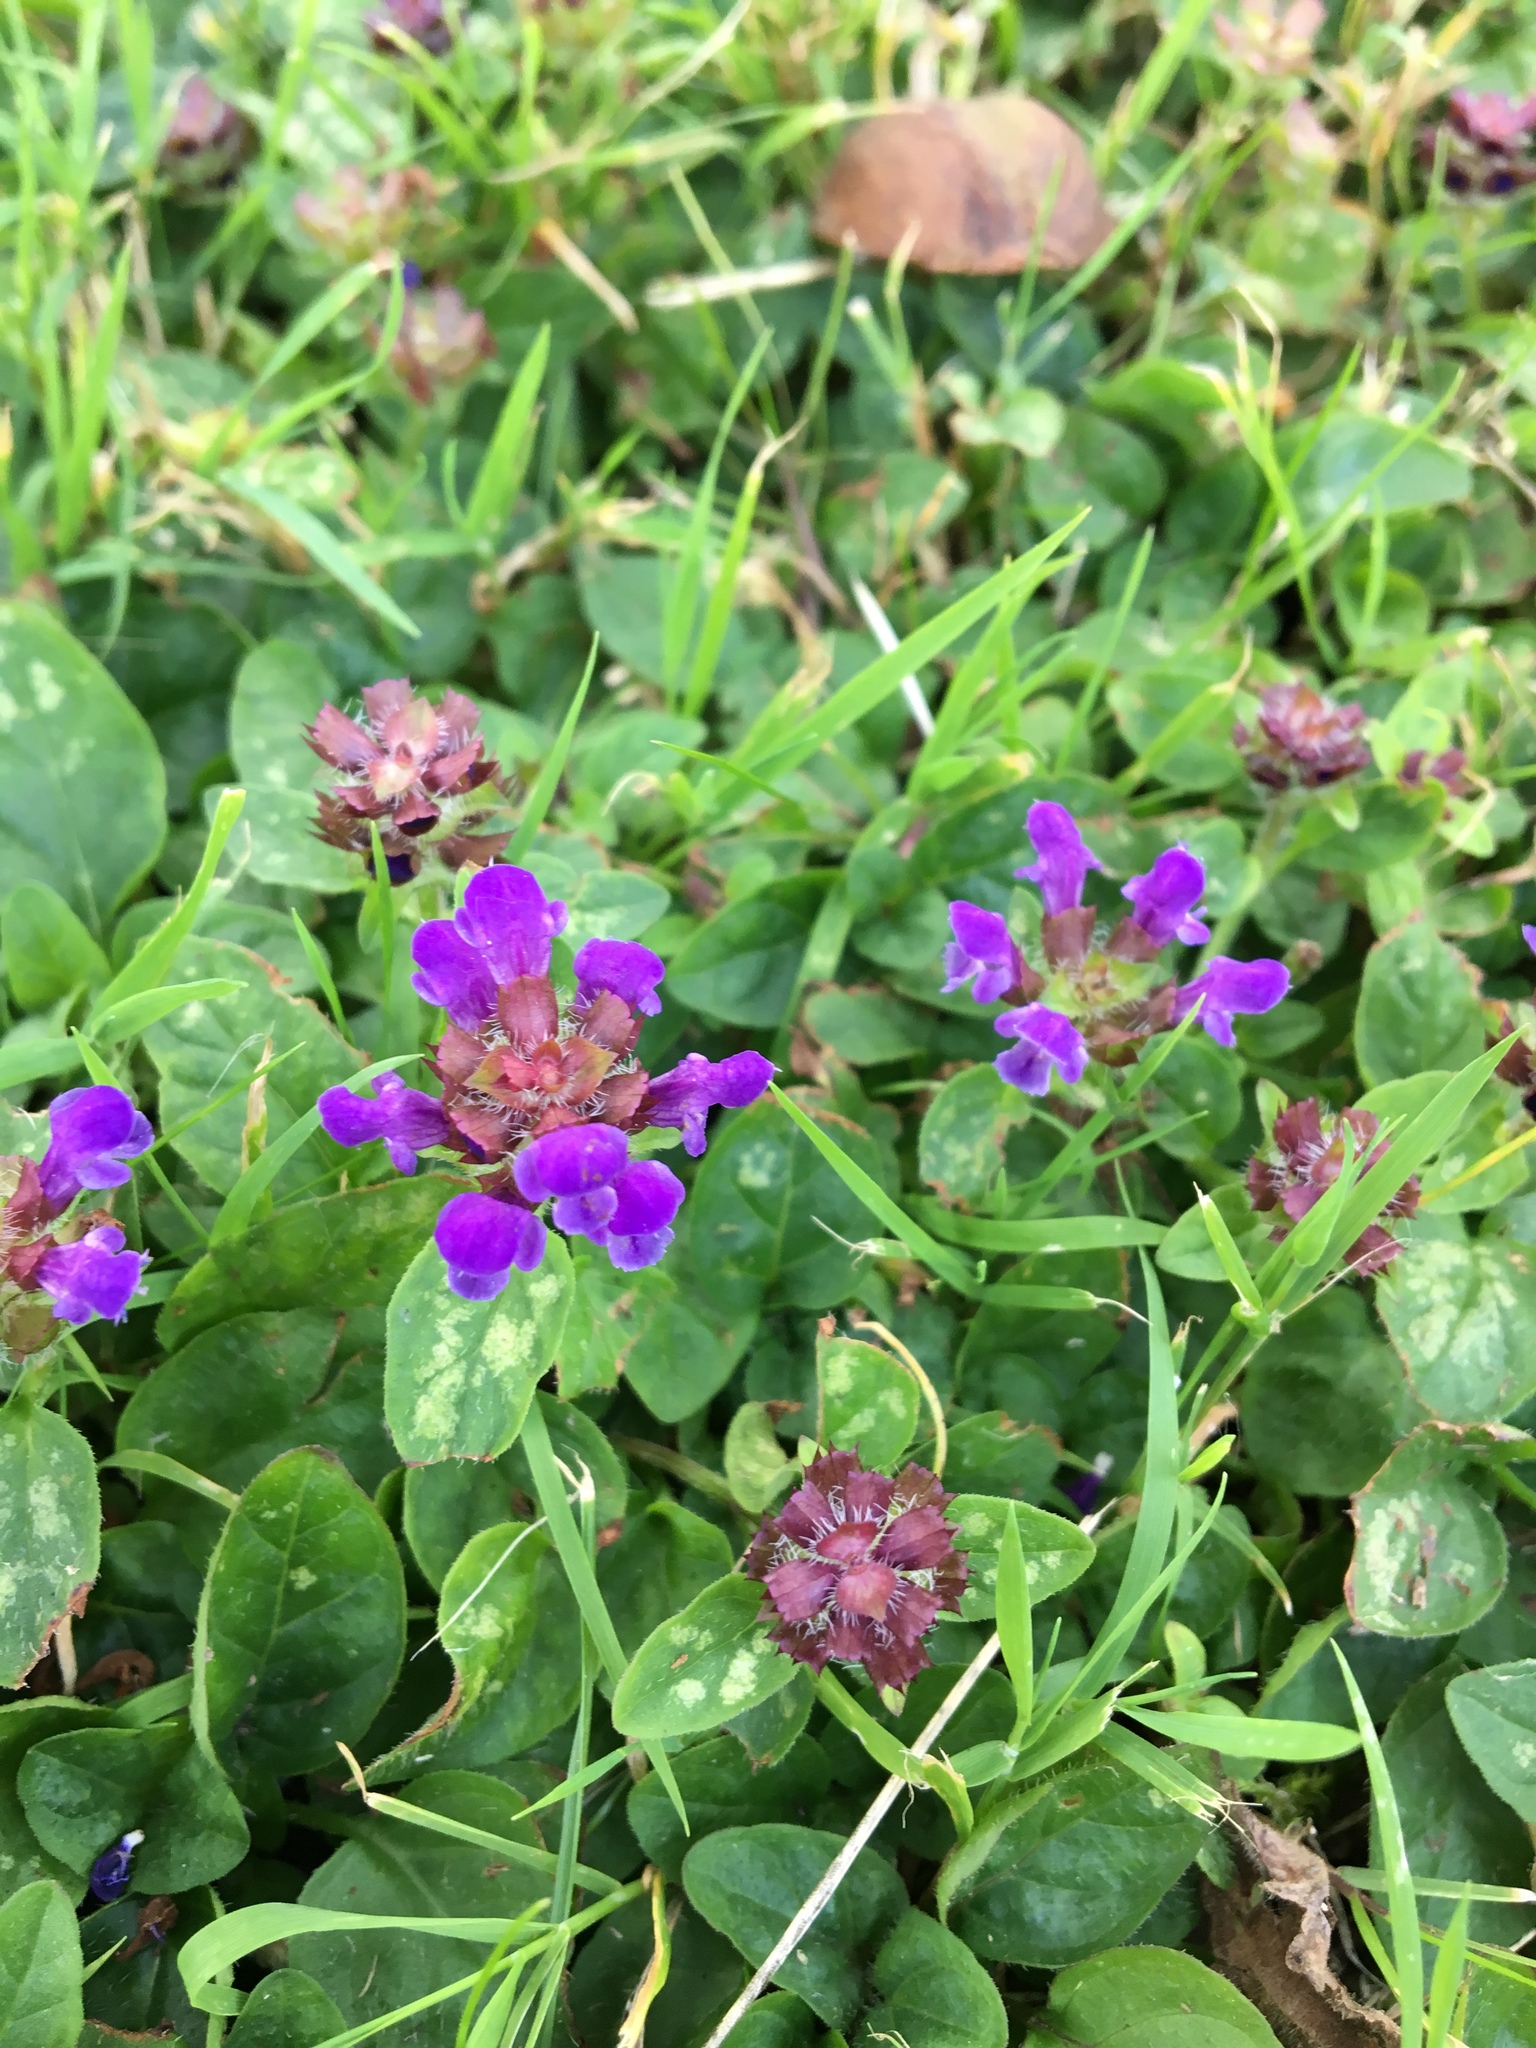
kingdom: Plantae
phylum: Tracheophyta
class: Magnoliopsida
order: Lamiales
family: Lamiaceae
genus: Prunella
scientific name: Prunella vulgaris
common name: Heal-all
